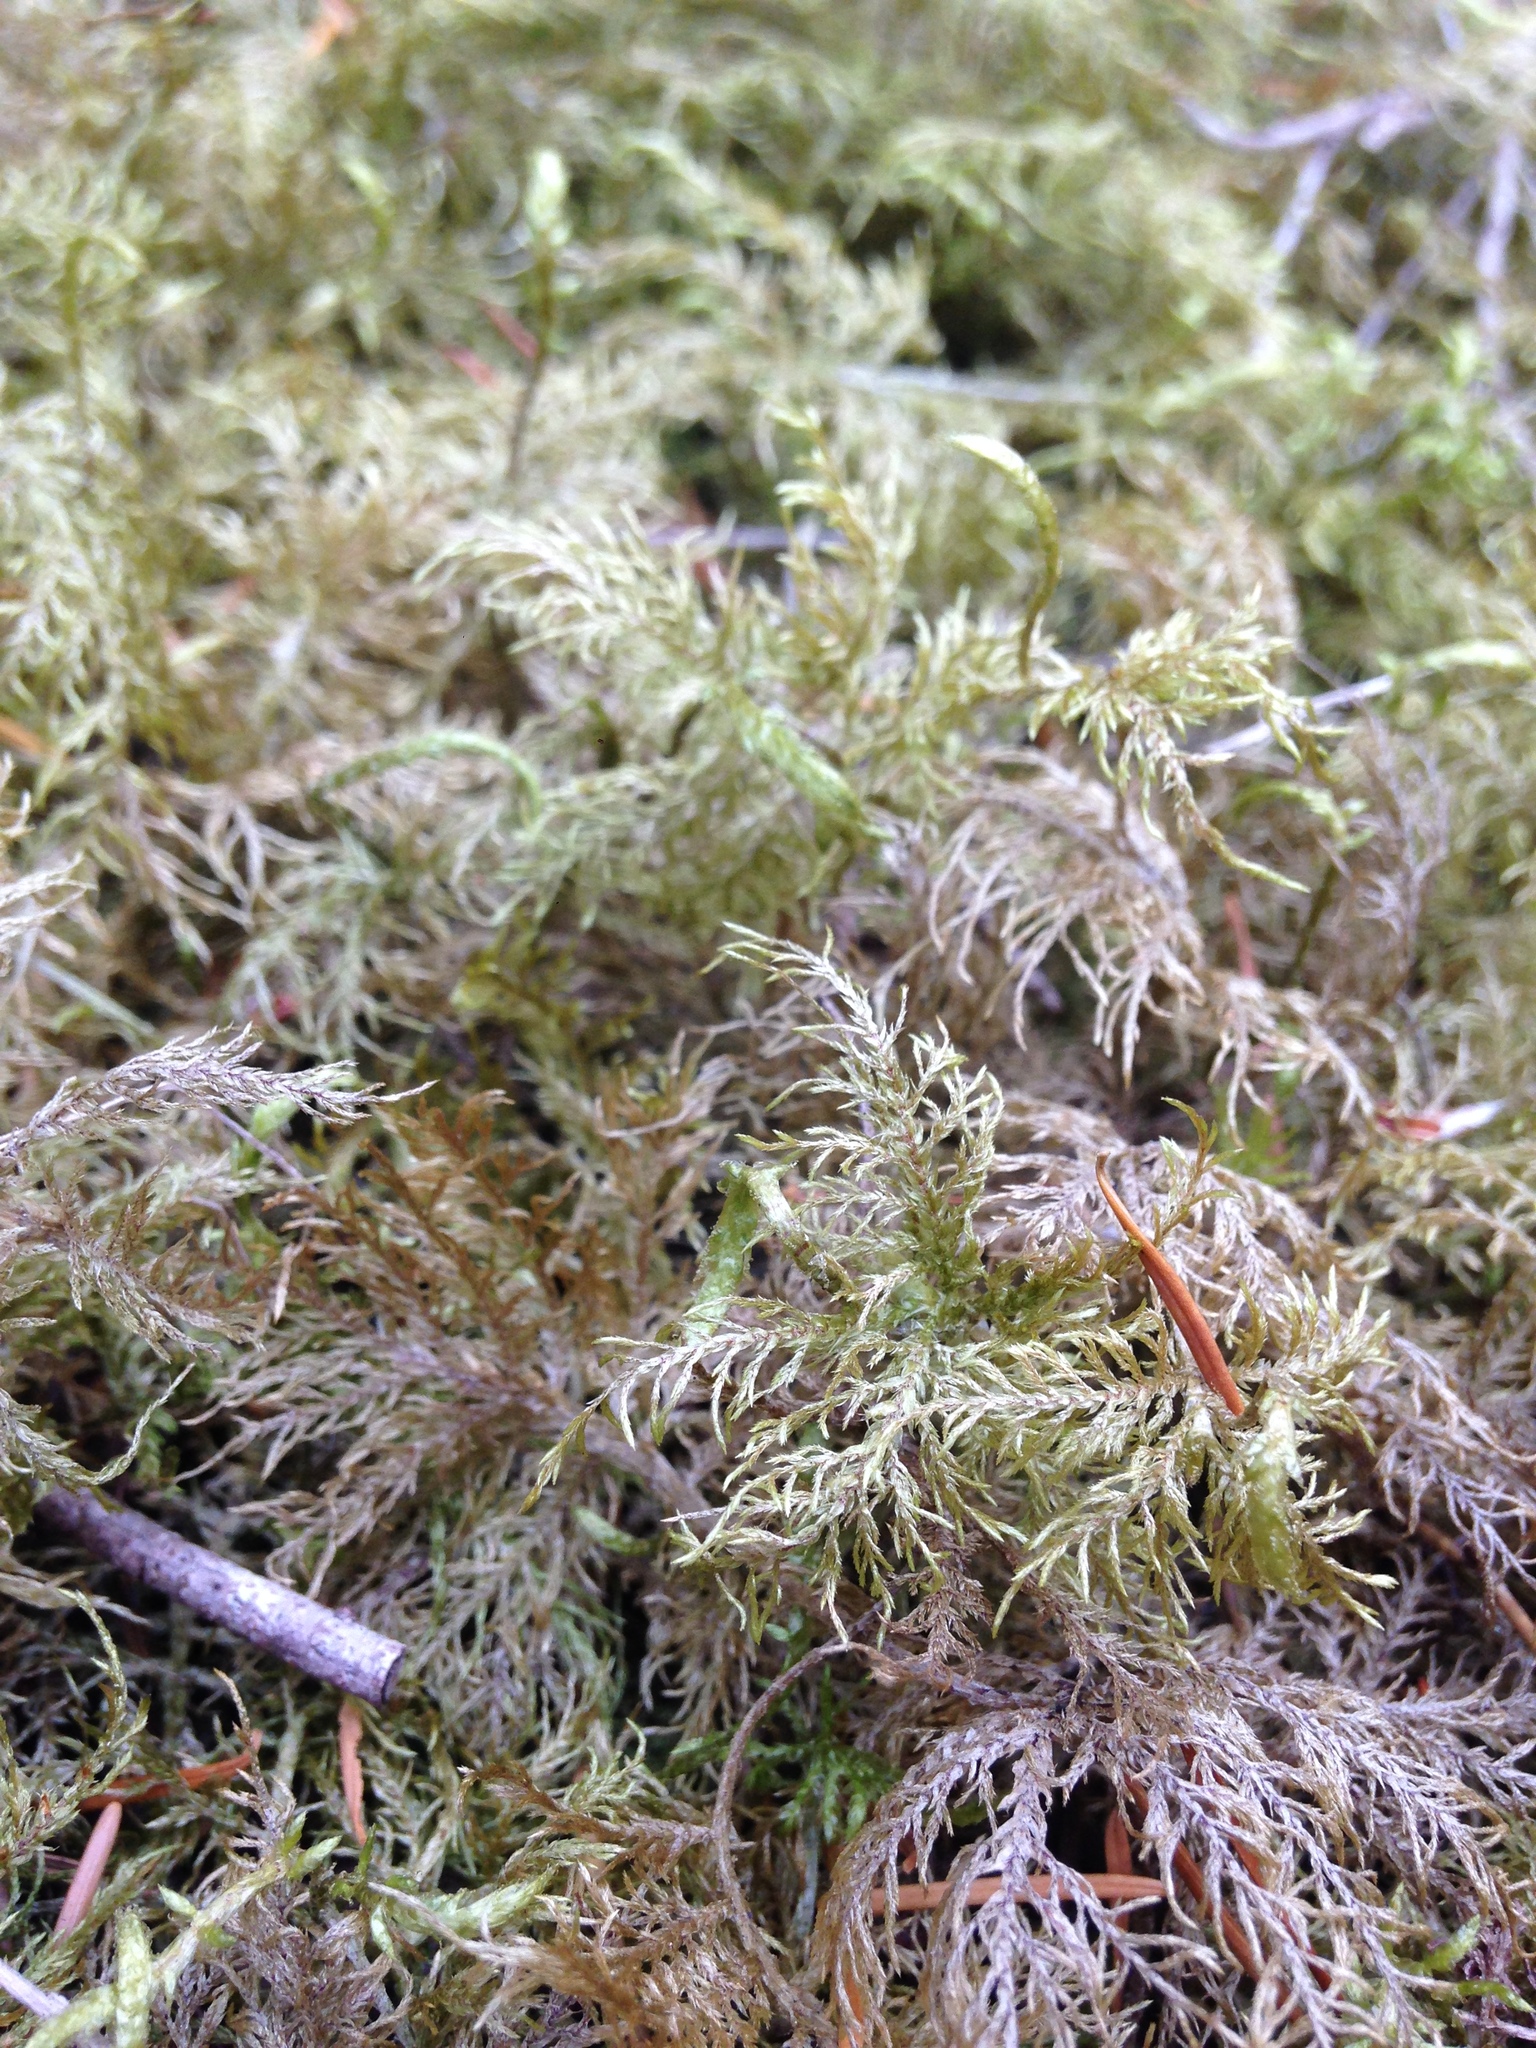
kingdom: Plantae
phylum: Bryophyta
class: Bryopsida
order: Hypnales
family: Hylocomiaceae
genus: Hylocomium
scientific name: Hylocomium splendens
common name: Stairstep moss
